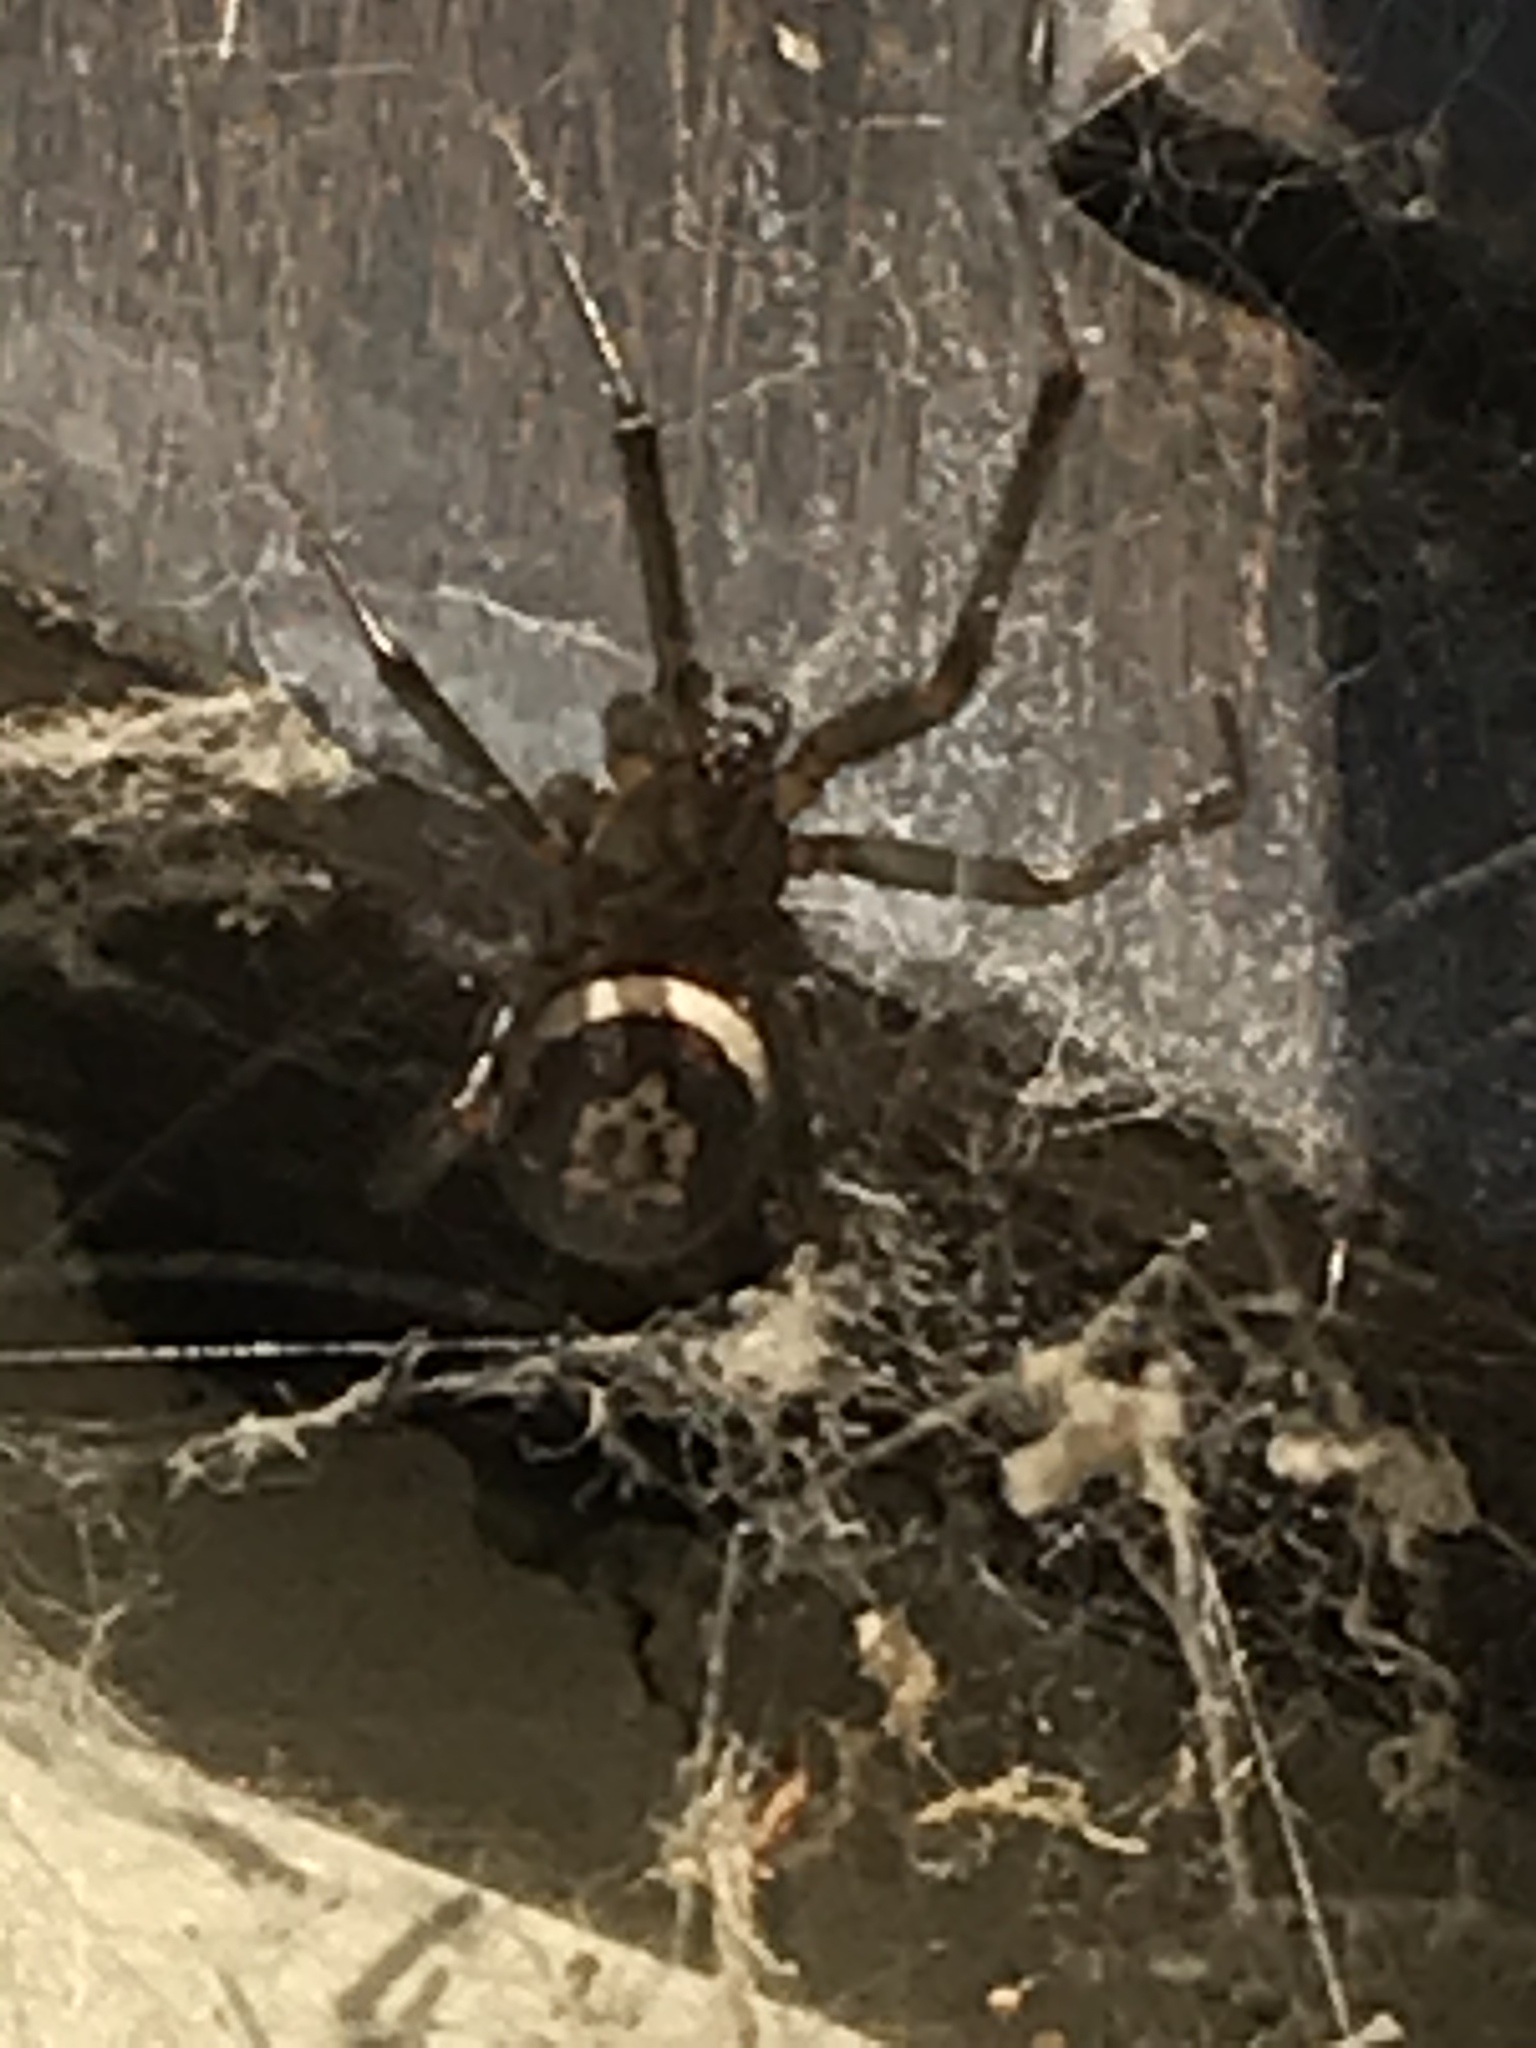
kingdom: Animalia
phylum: Arthropoda
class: Arachnida
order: Araneae
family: Theridiidae
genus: Steatoda
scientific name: Steatoda nobilis
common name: Cobweb weaver
